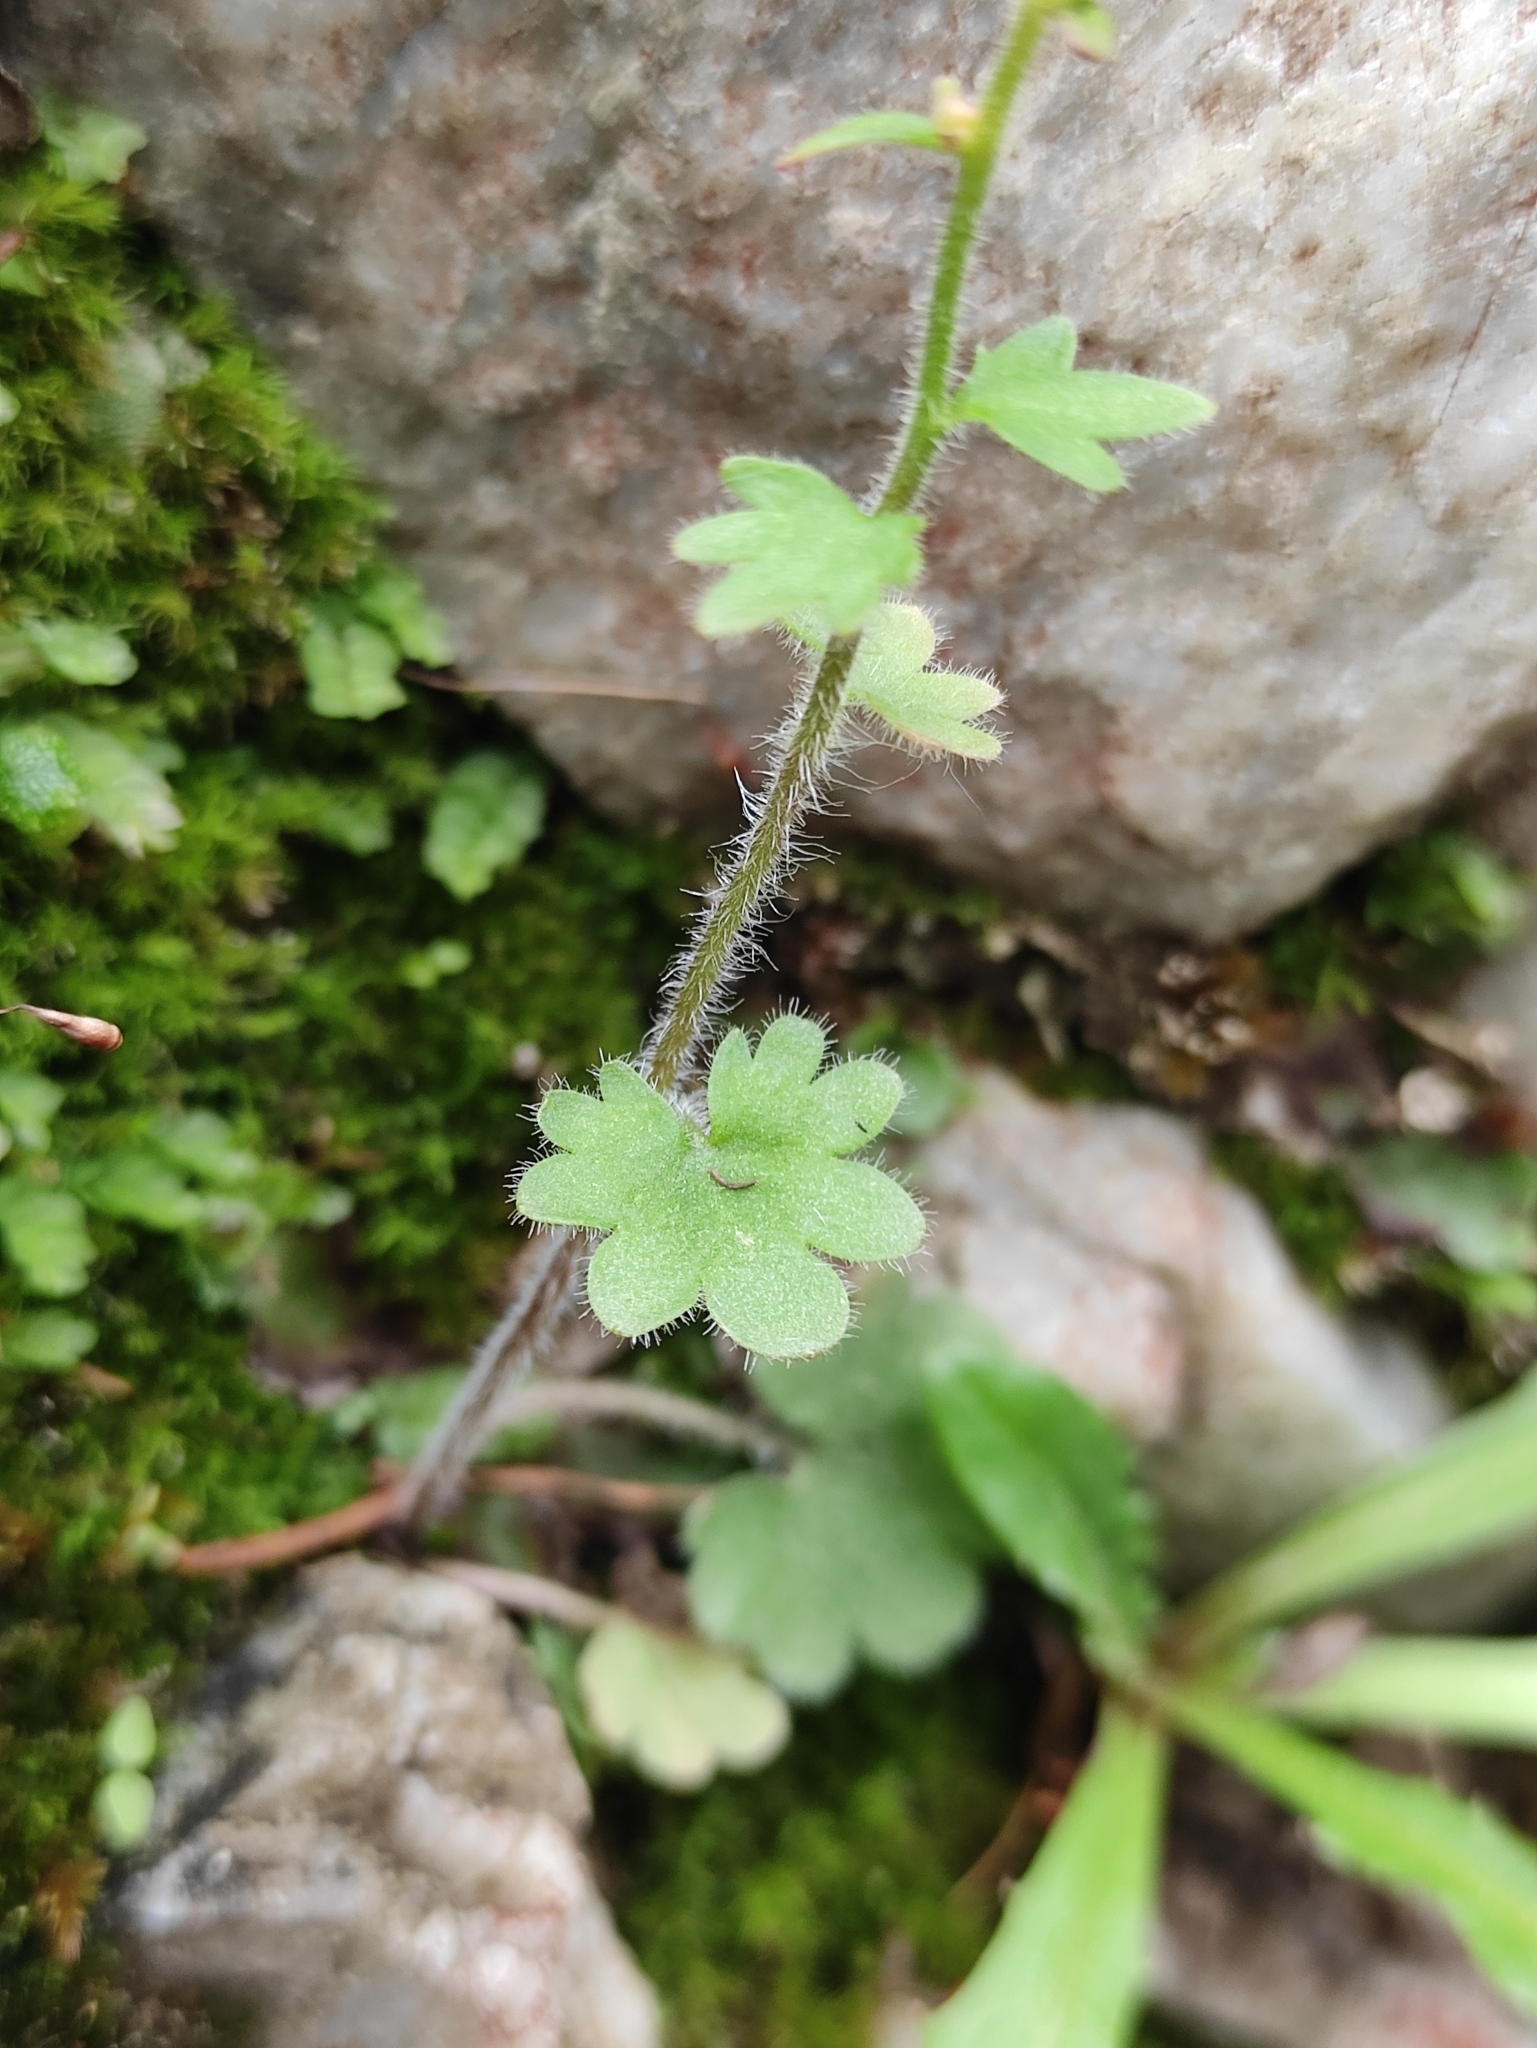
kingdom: Plantae
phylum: Tracheophyta
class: Magnoliopsida
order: Saxifragales
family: Saxifragaceae
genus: Saxifraga
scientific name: Saxifraga sibirica
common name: Siberian saxifrage
